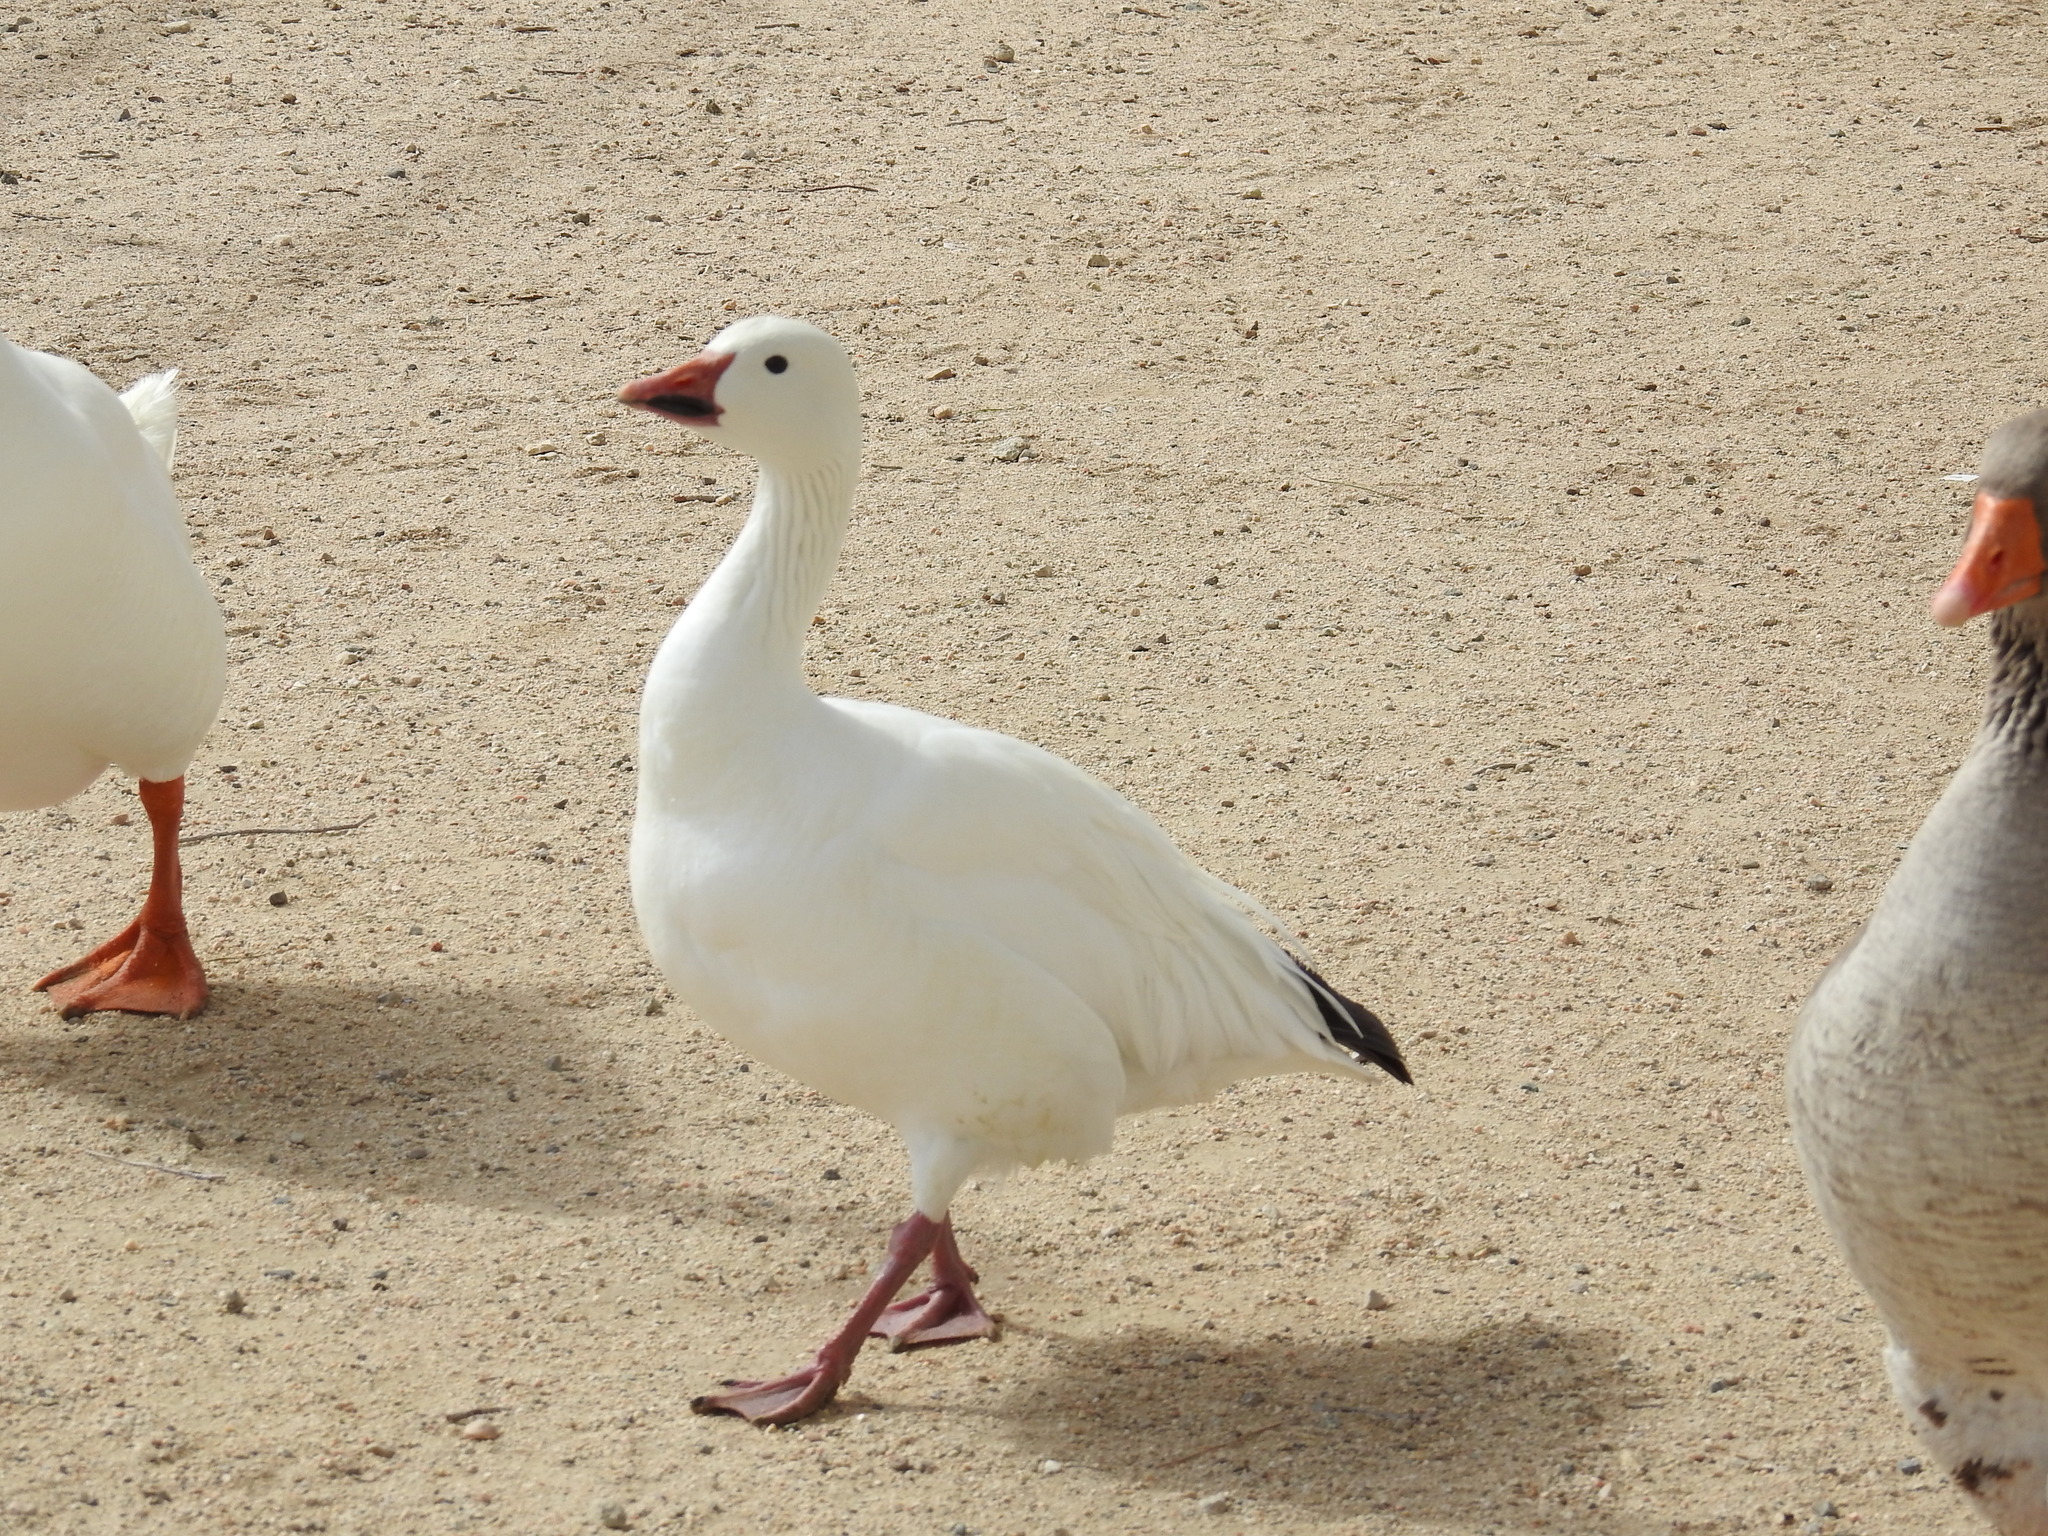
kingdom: Animalia
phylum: Chordata
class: Aves
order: Anseriformes
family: Anatidae
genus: Anser
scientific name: Anser caerulescens
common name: Snow goose
